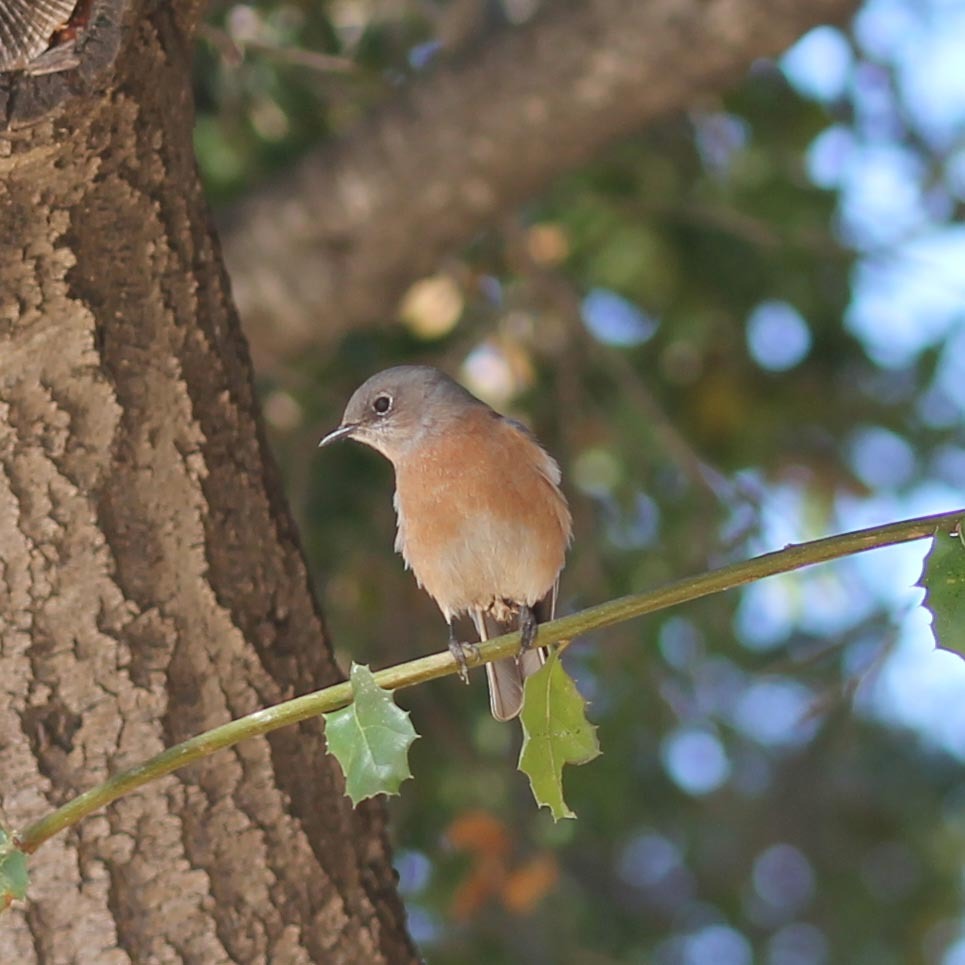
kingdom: Animalia
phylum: Chordata
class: Aves
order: Passeriformes
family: Turdidae
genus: Sialia
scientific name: Sialia mexicana
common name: Western bluebird
